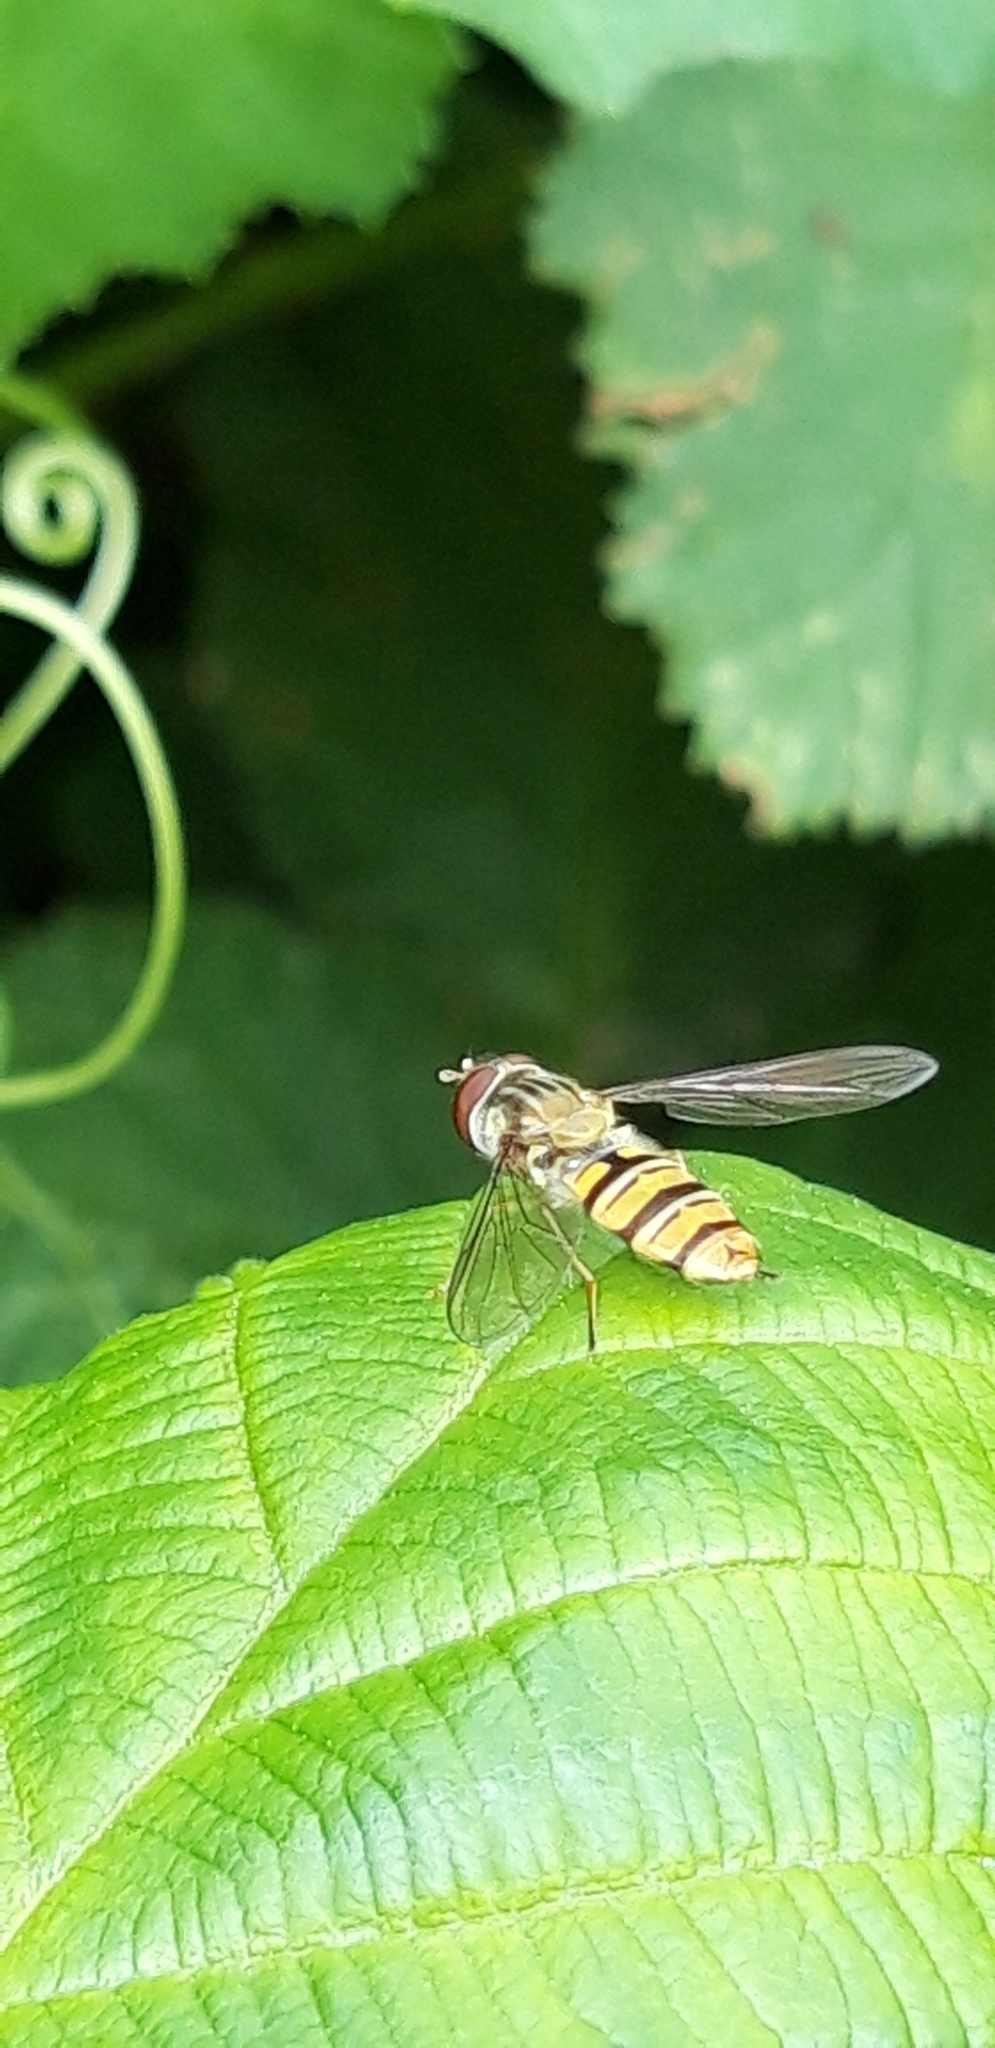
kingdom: Animalia
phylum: Arthropoda
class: Insecta
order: Diptera
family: Syrphidae
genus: Episyrphus
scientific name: Episyrphus balteatus
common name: Marmalade hoverfly
